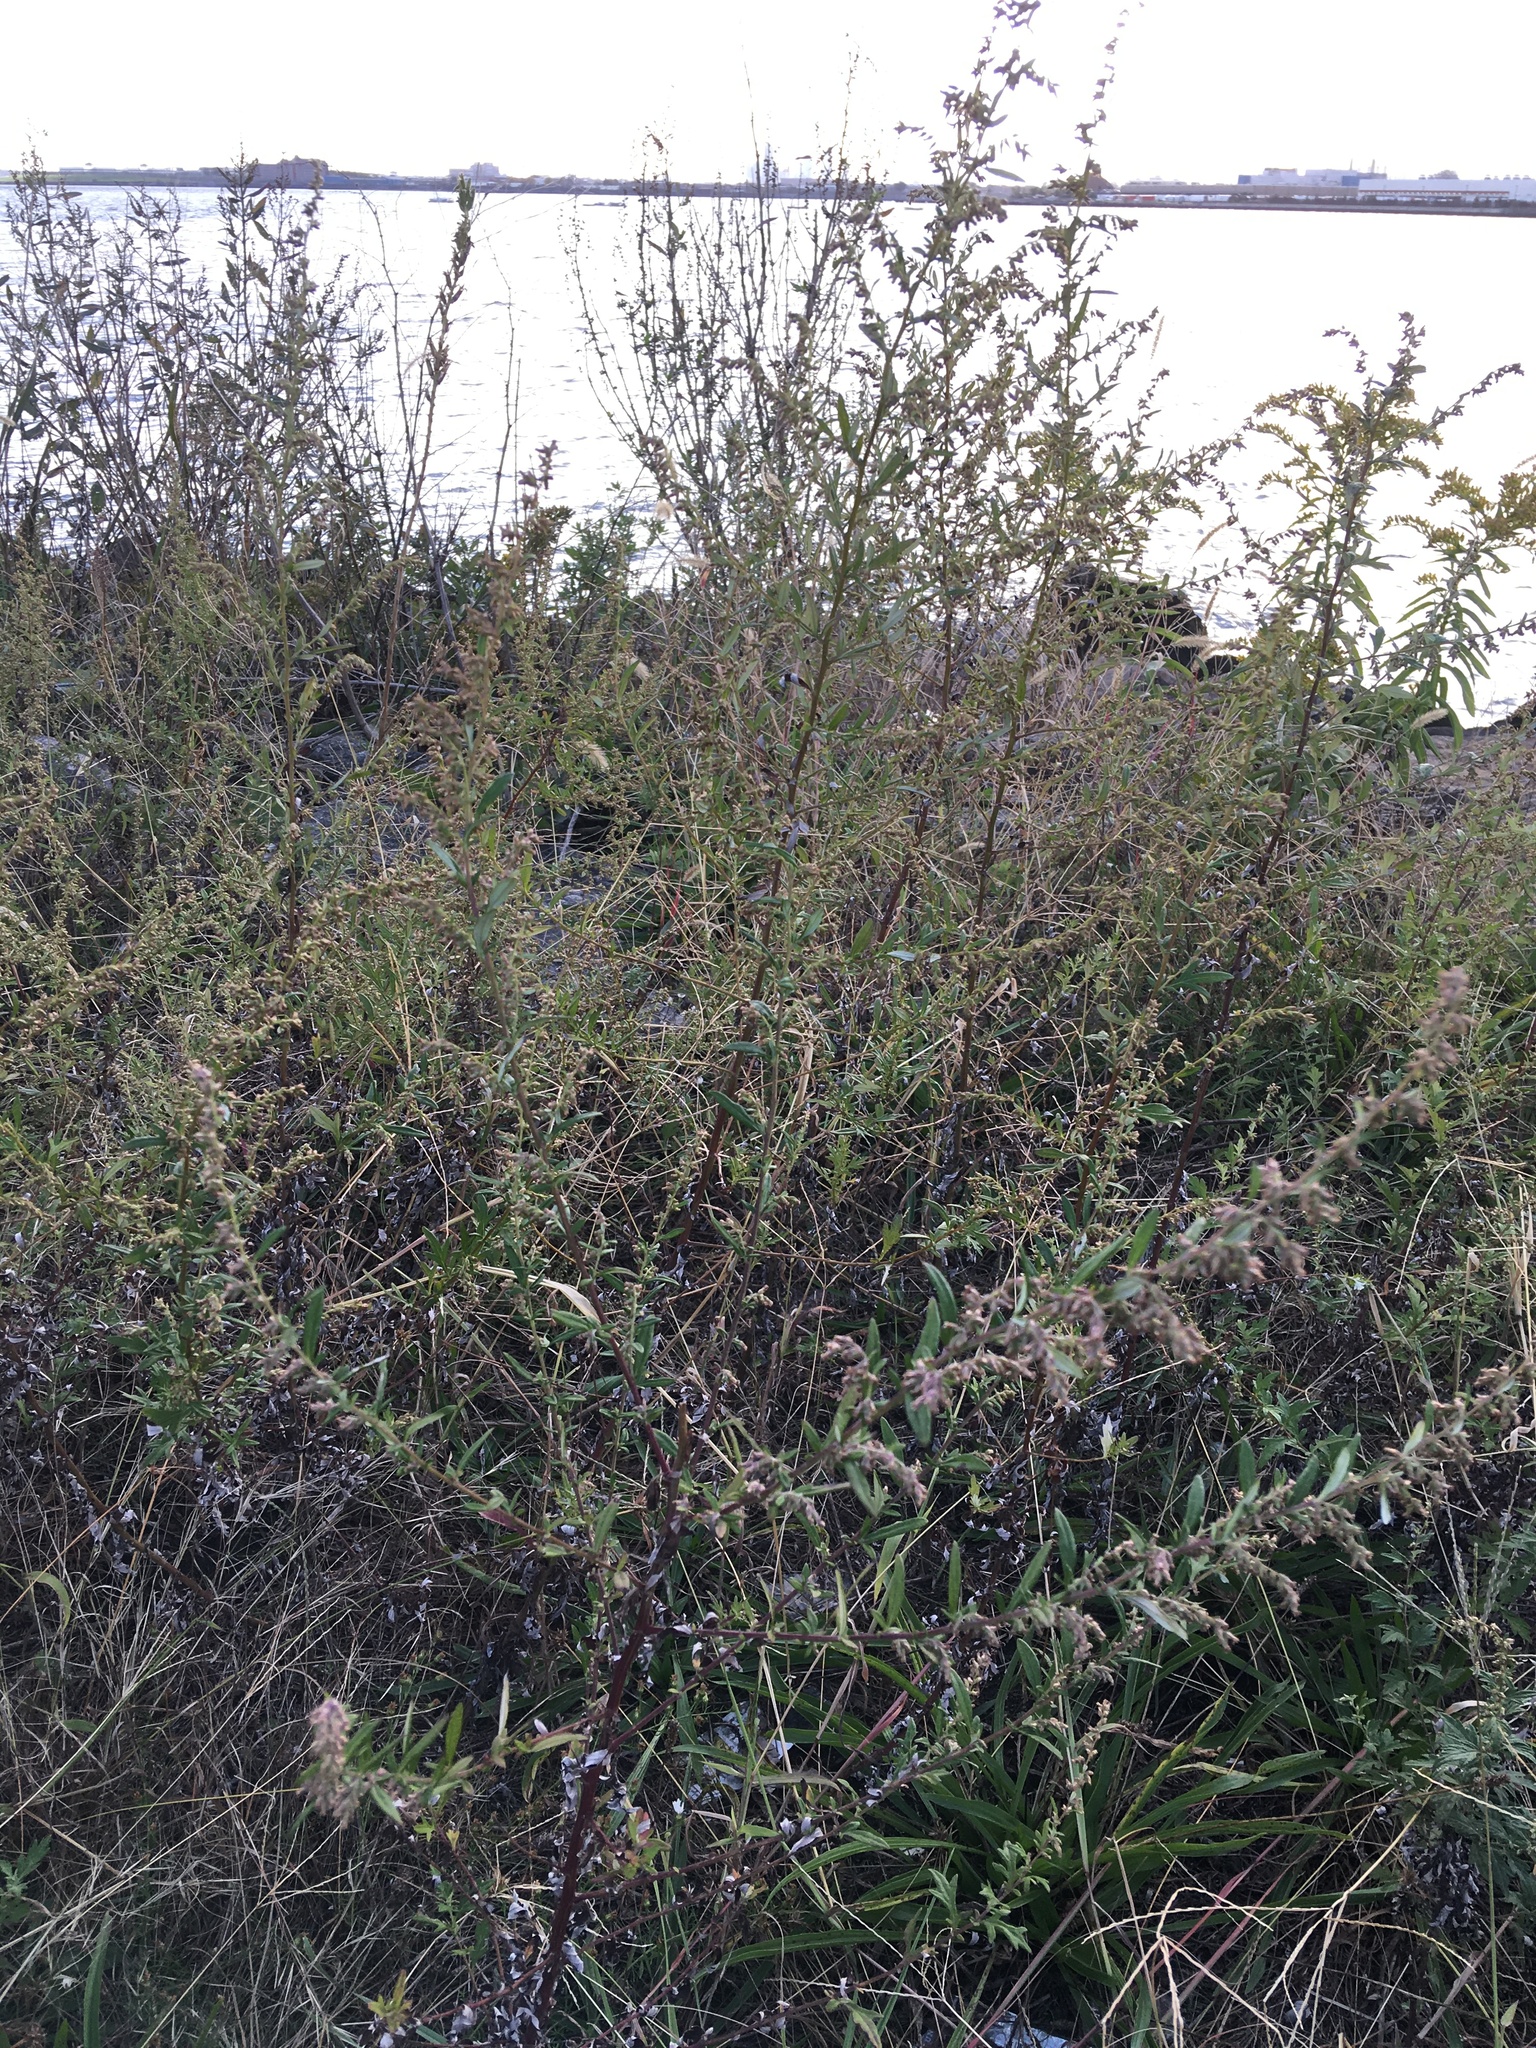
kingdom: Plantae
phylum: Tracheophyta
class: Magnoliopsida
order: Asterales
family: Asteraceae
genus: Artemisia
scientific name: Artemisia vulgaris
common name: Mugwort
